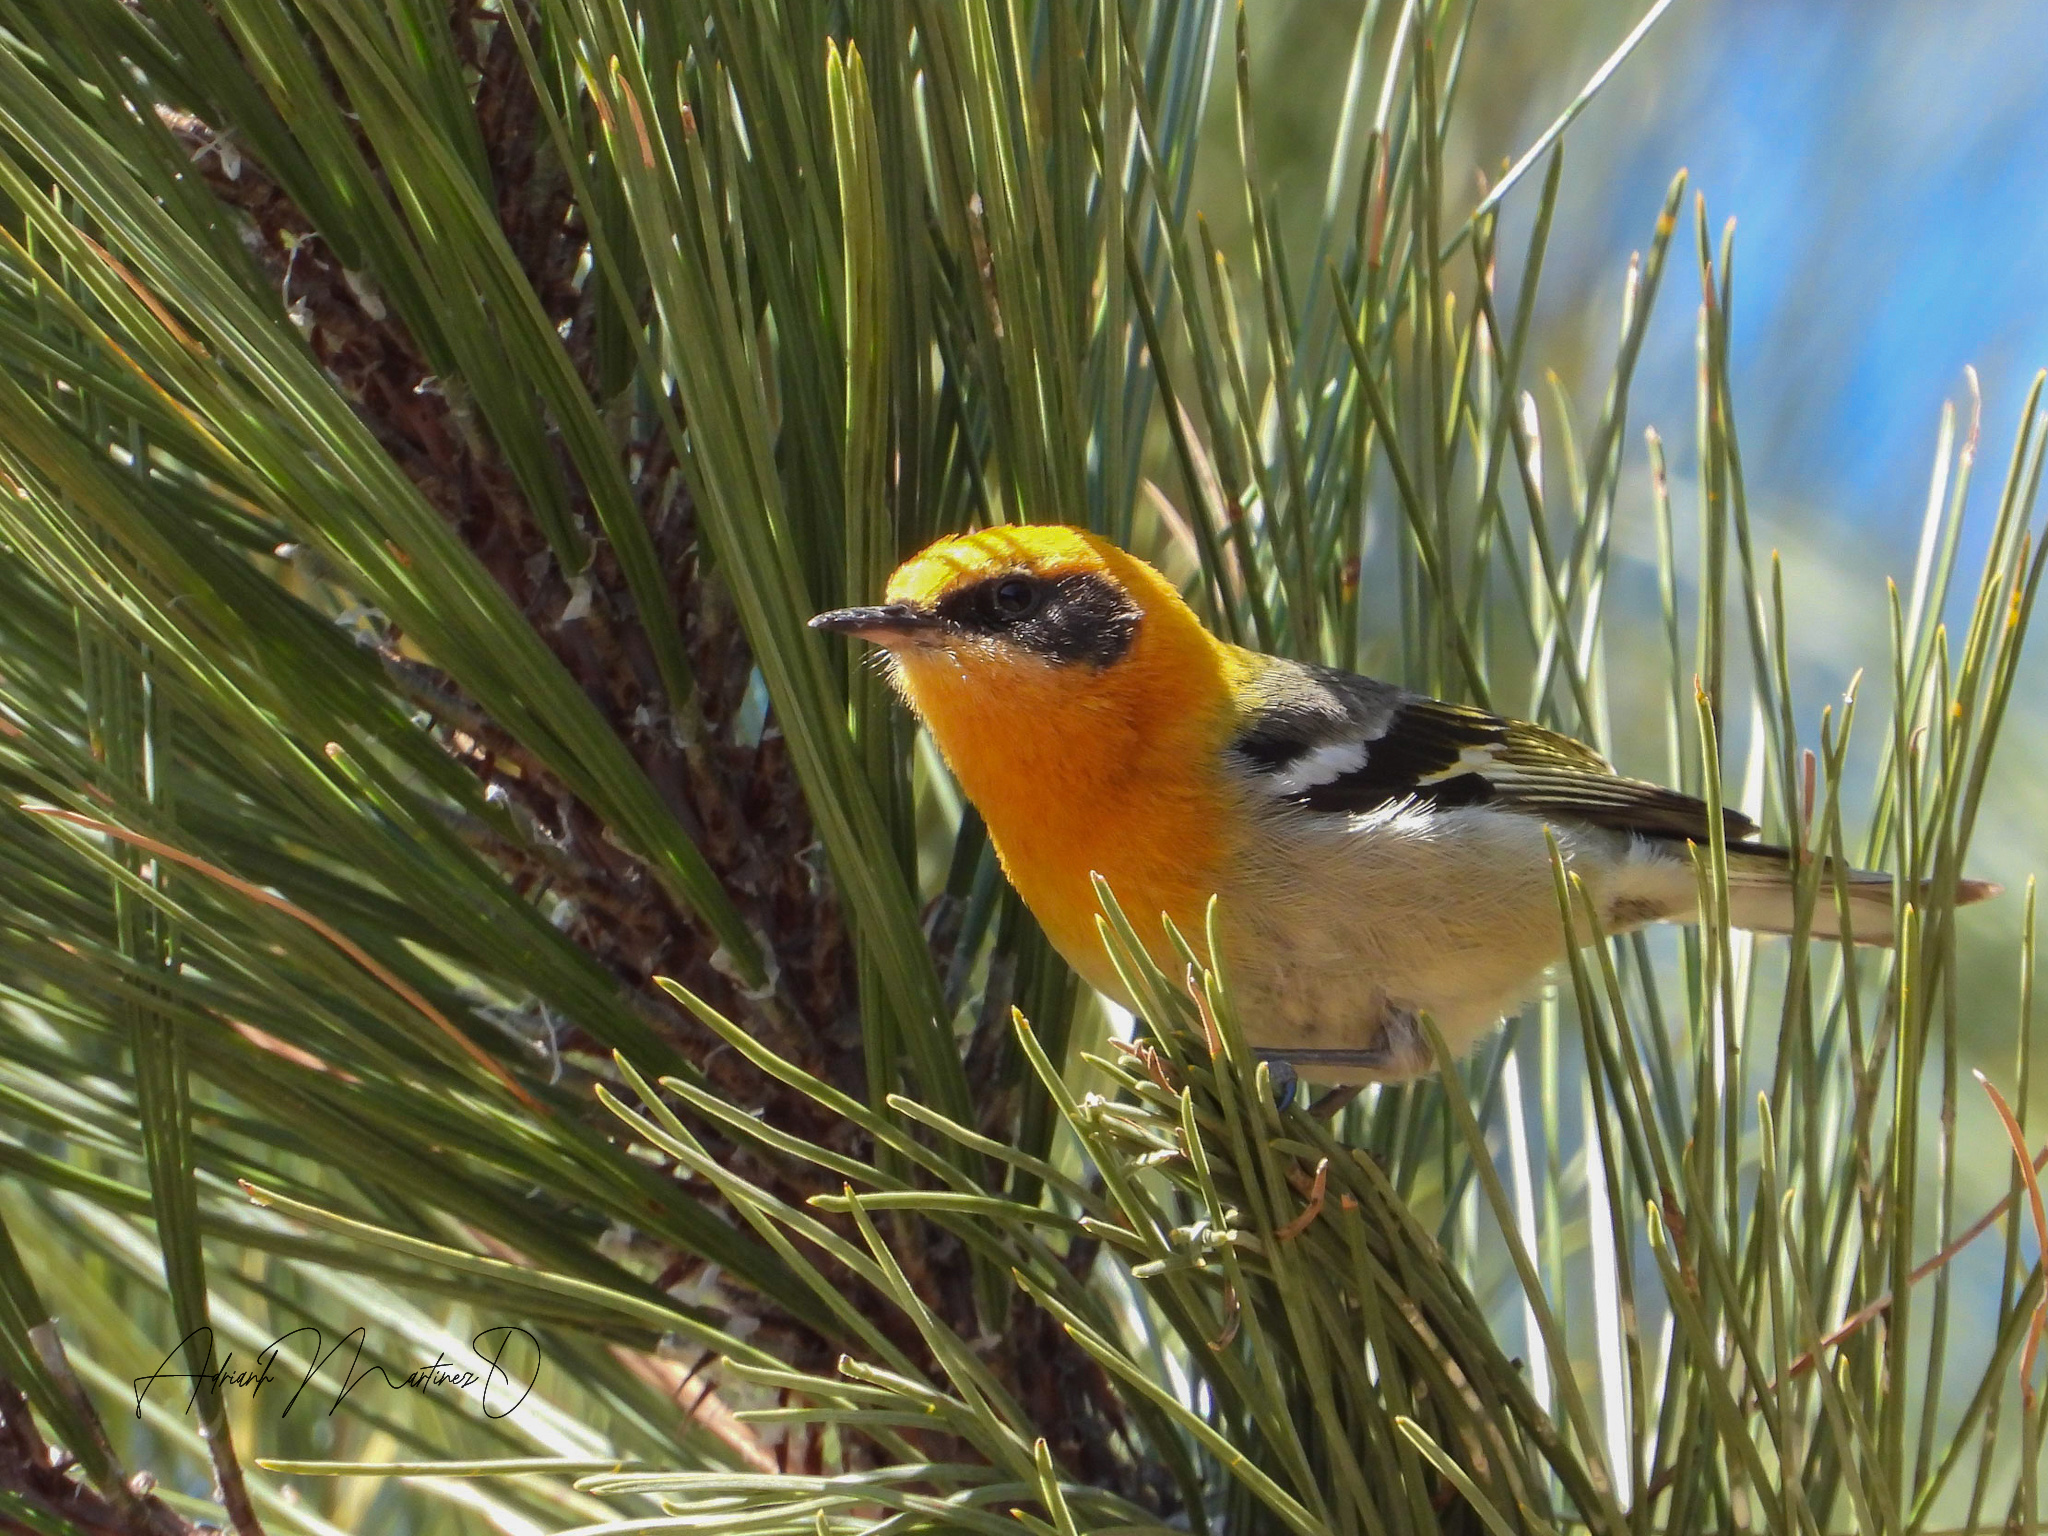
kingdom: Animalia
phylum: Chordata
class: Aves
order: Passeriformes
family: Peucedramidae
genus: Peucedramus
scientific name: Peucedramus taeniatus
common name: Olive warbler
